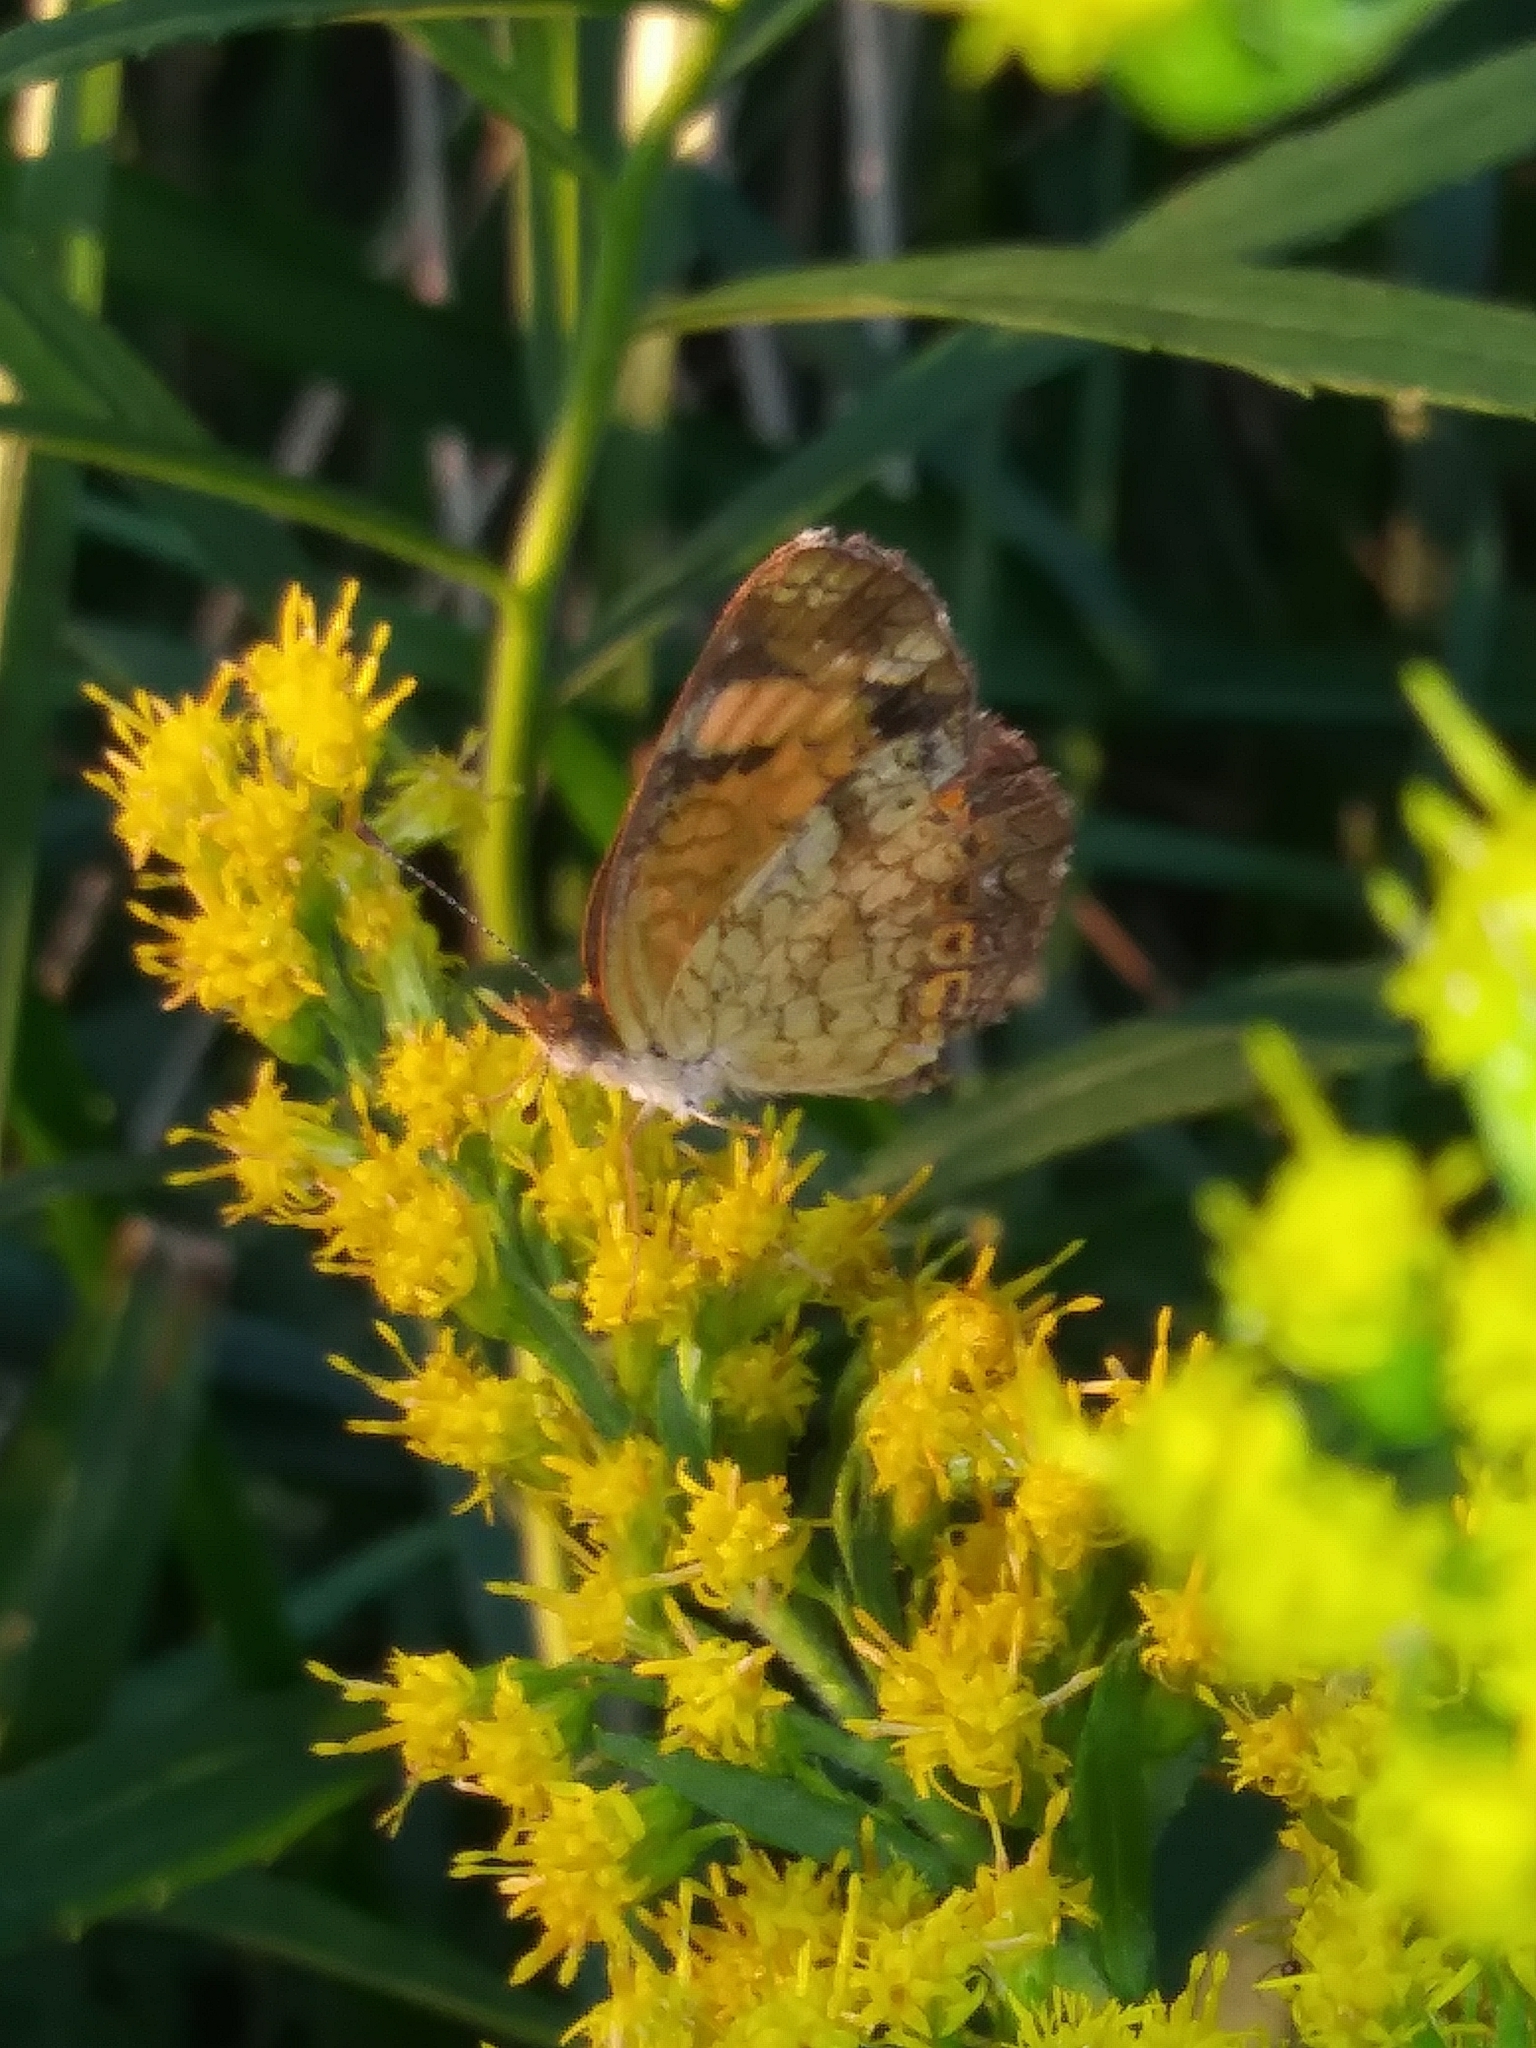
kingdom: Animalia
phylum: Arthropoda
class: Insecta
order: Lepidoptera
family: Nymphalidae
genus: Phyciodes
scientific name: Phyciodes tharos
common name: Pearl crescent
